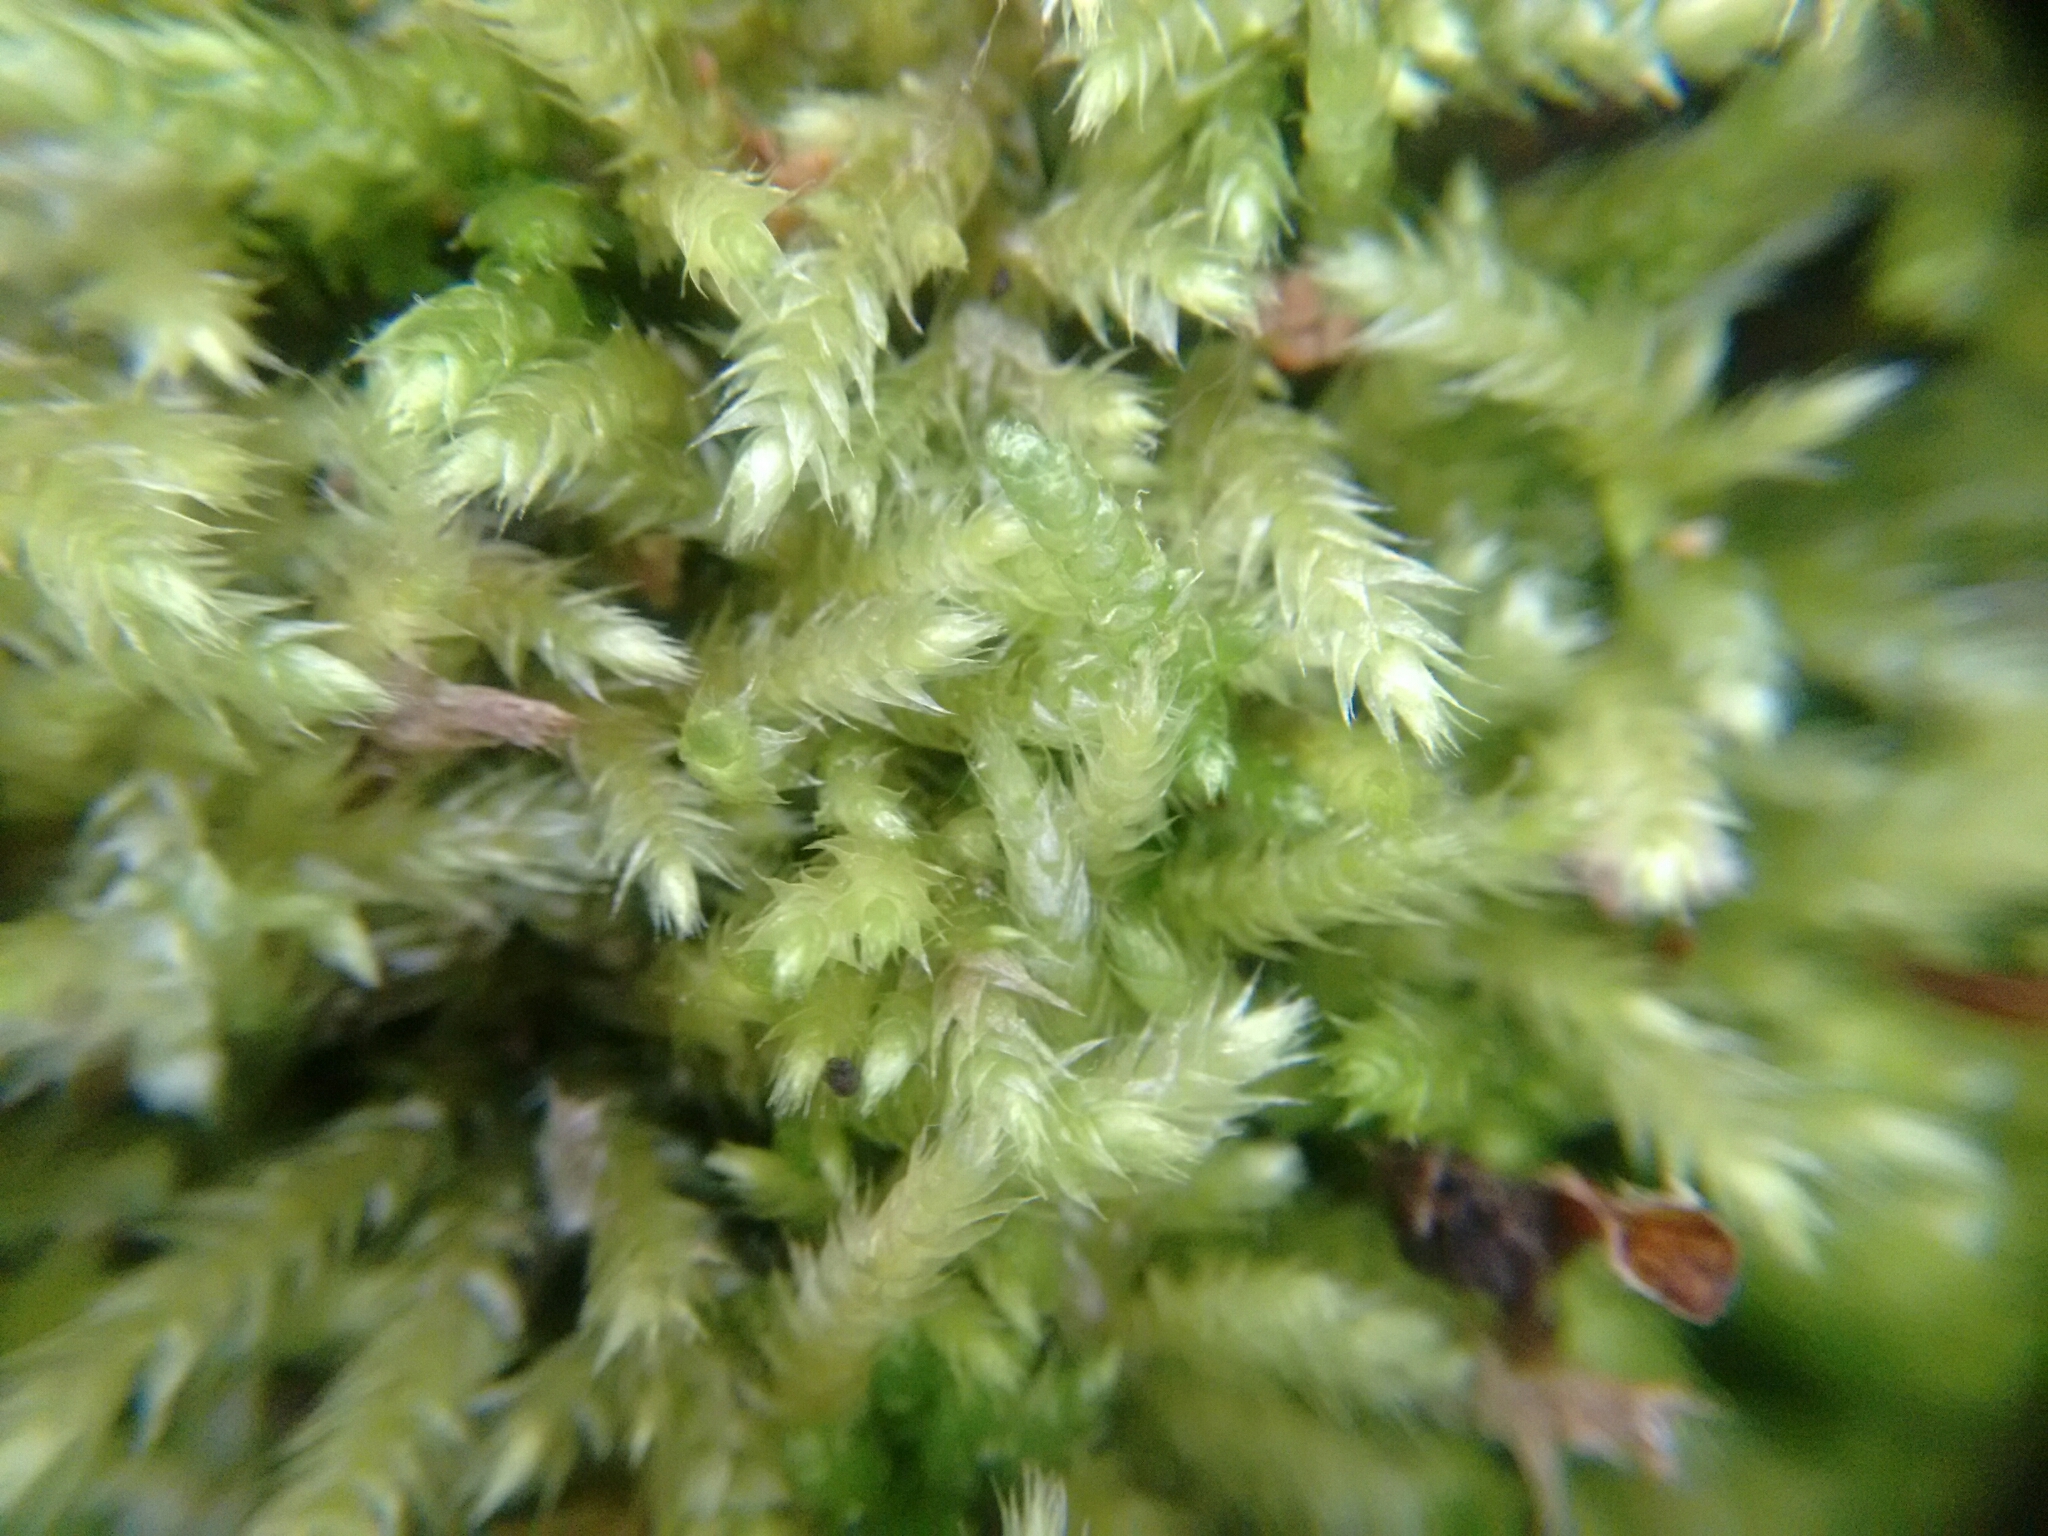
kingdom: Plantae
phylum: Bryophyta
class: Bryopsida
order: Hypnales
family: Brachytheciaceae
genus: Brachythecium
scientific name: Brachythecium salebrosum
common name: Smooth-stalk feather-moss
